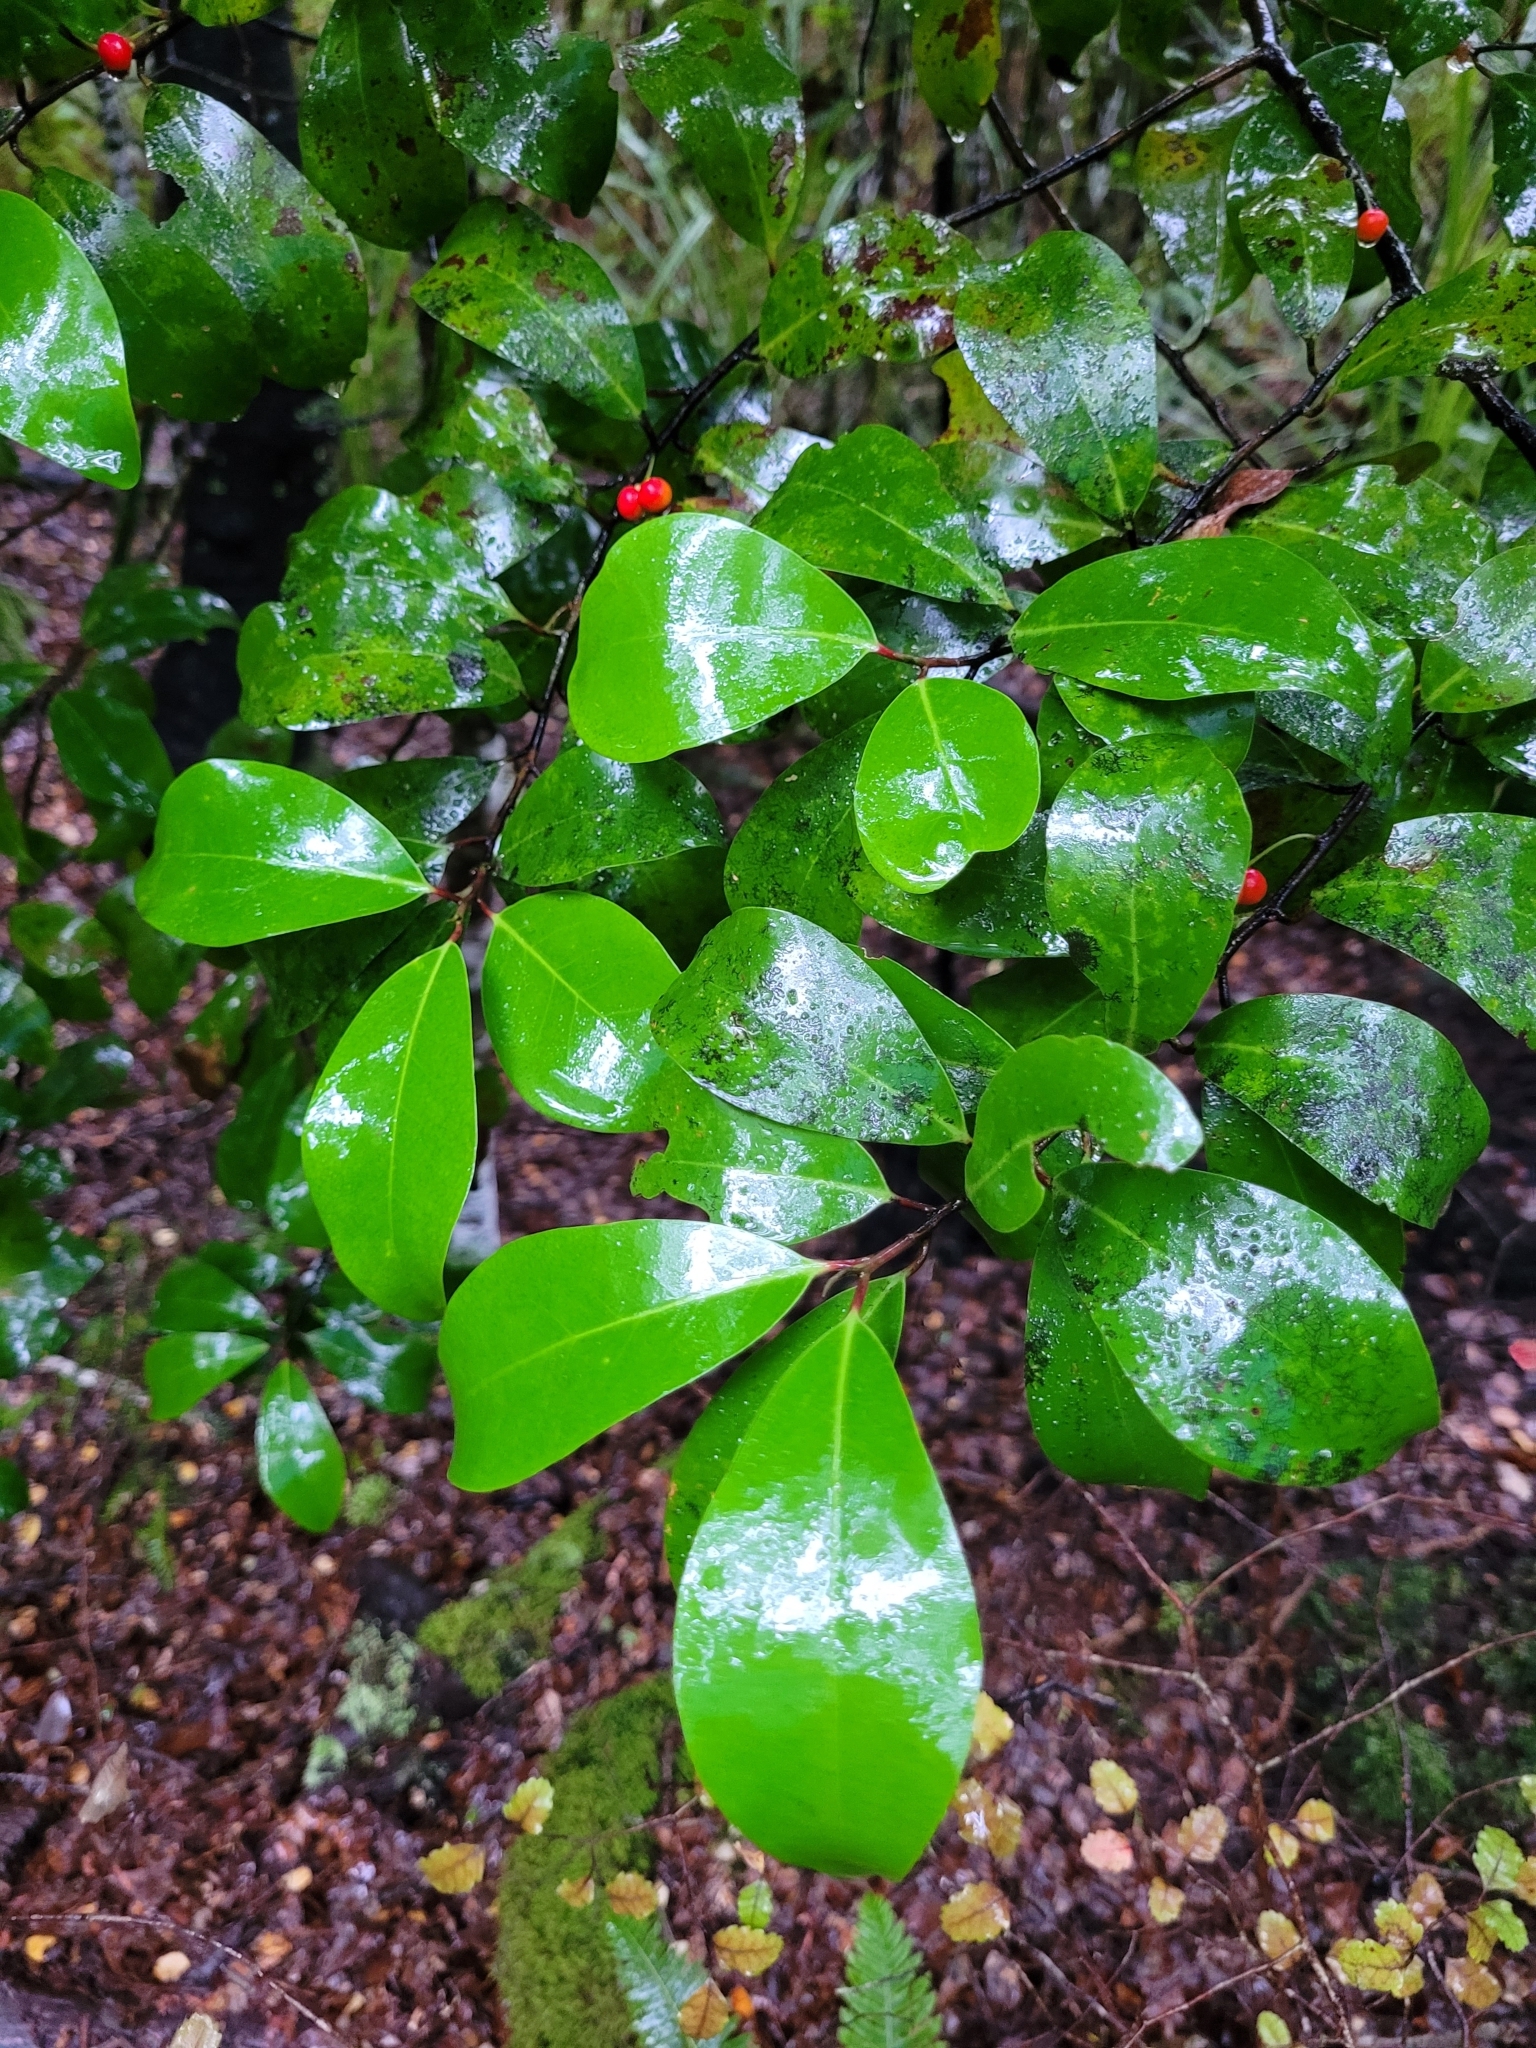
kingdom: Plantae
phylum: Tracheophyta
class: Magnoliopsida
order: Canellales
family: Winteraceae
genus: Pseudowintera
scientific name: Pseudowintera axillaris
